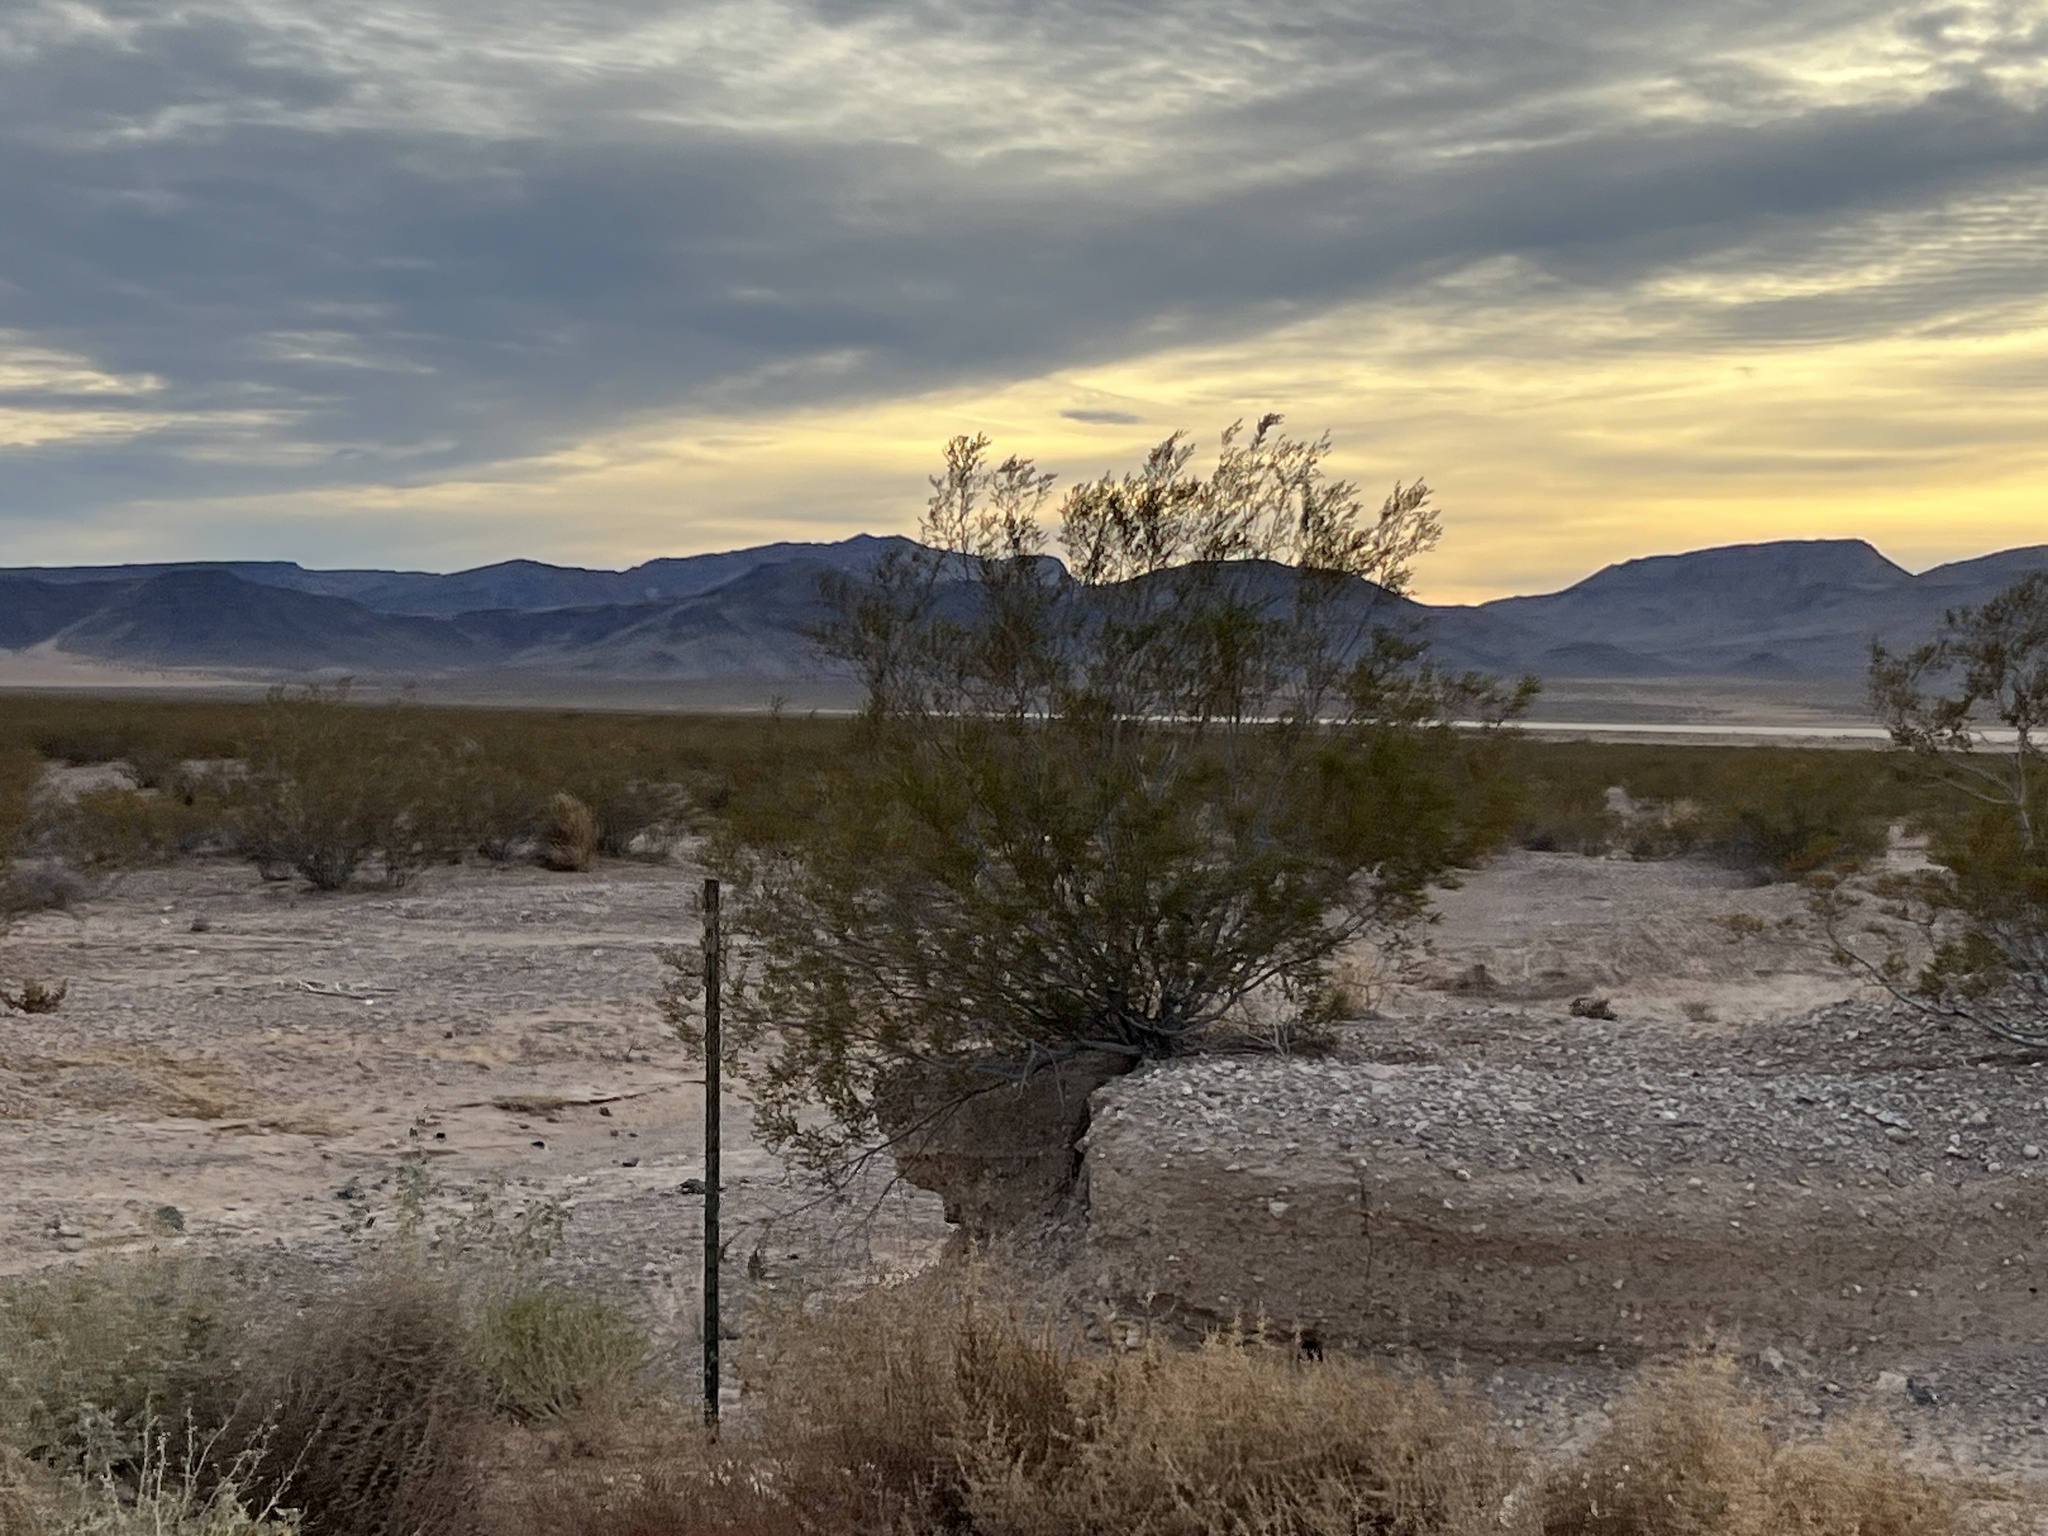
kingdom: Plantae
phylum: Tracheophyta
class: Magnoliopsida
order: Zygophyllales
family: Zygophyllaceae
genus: Larrea
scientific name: Larrea tridentata
